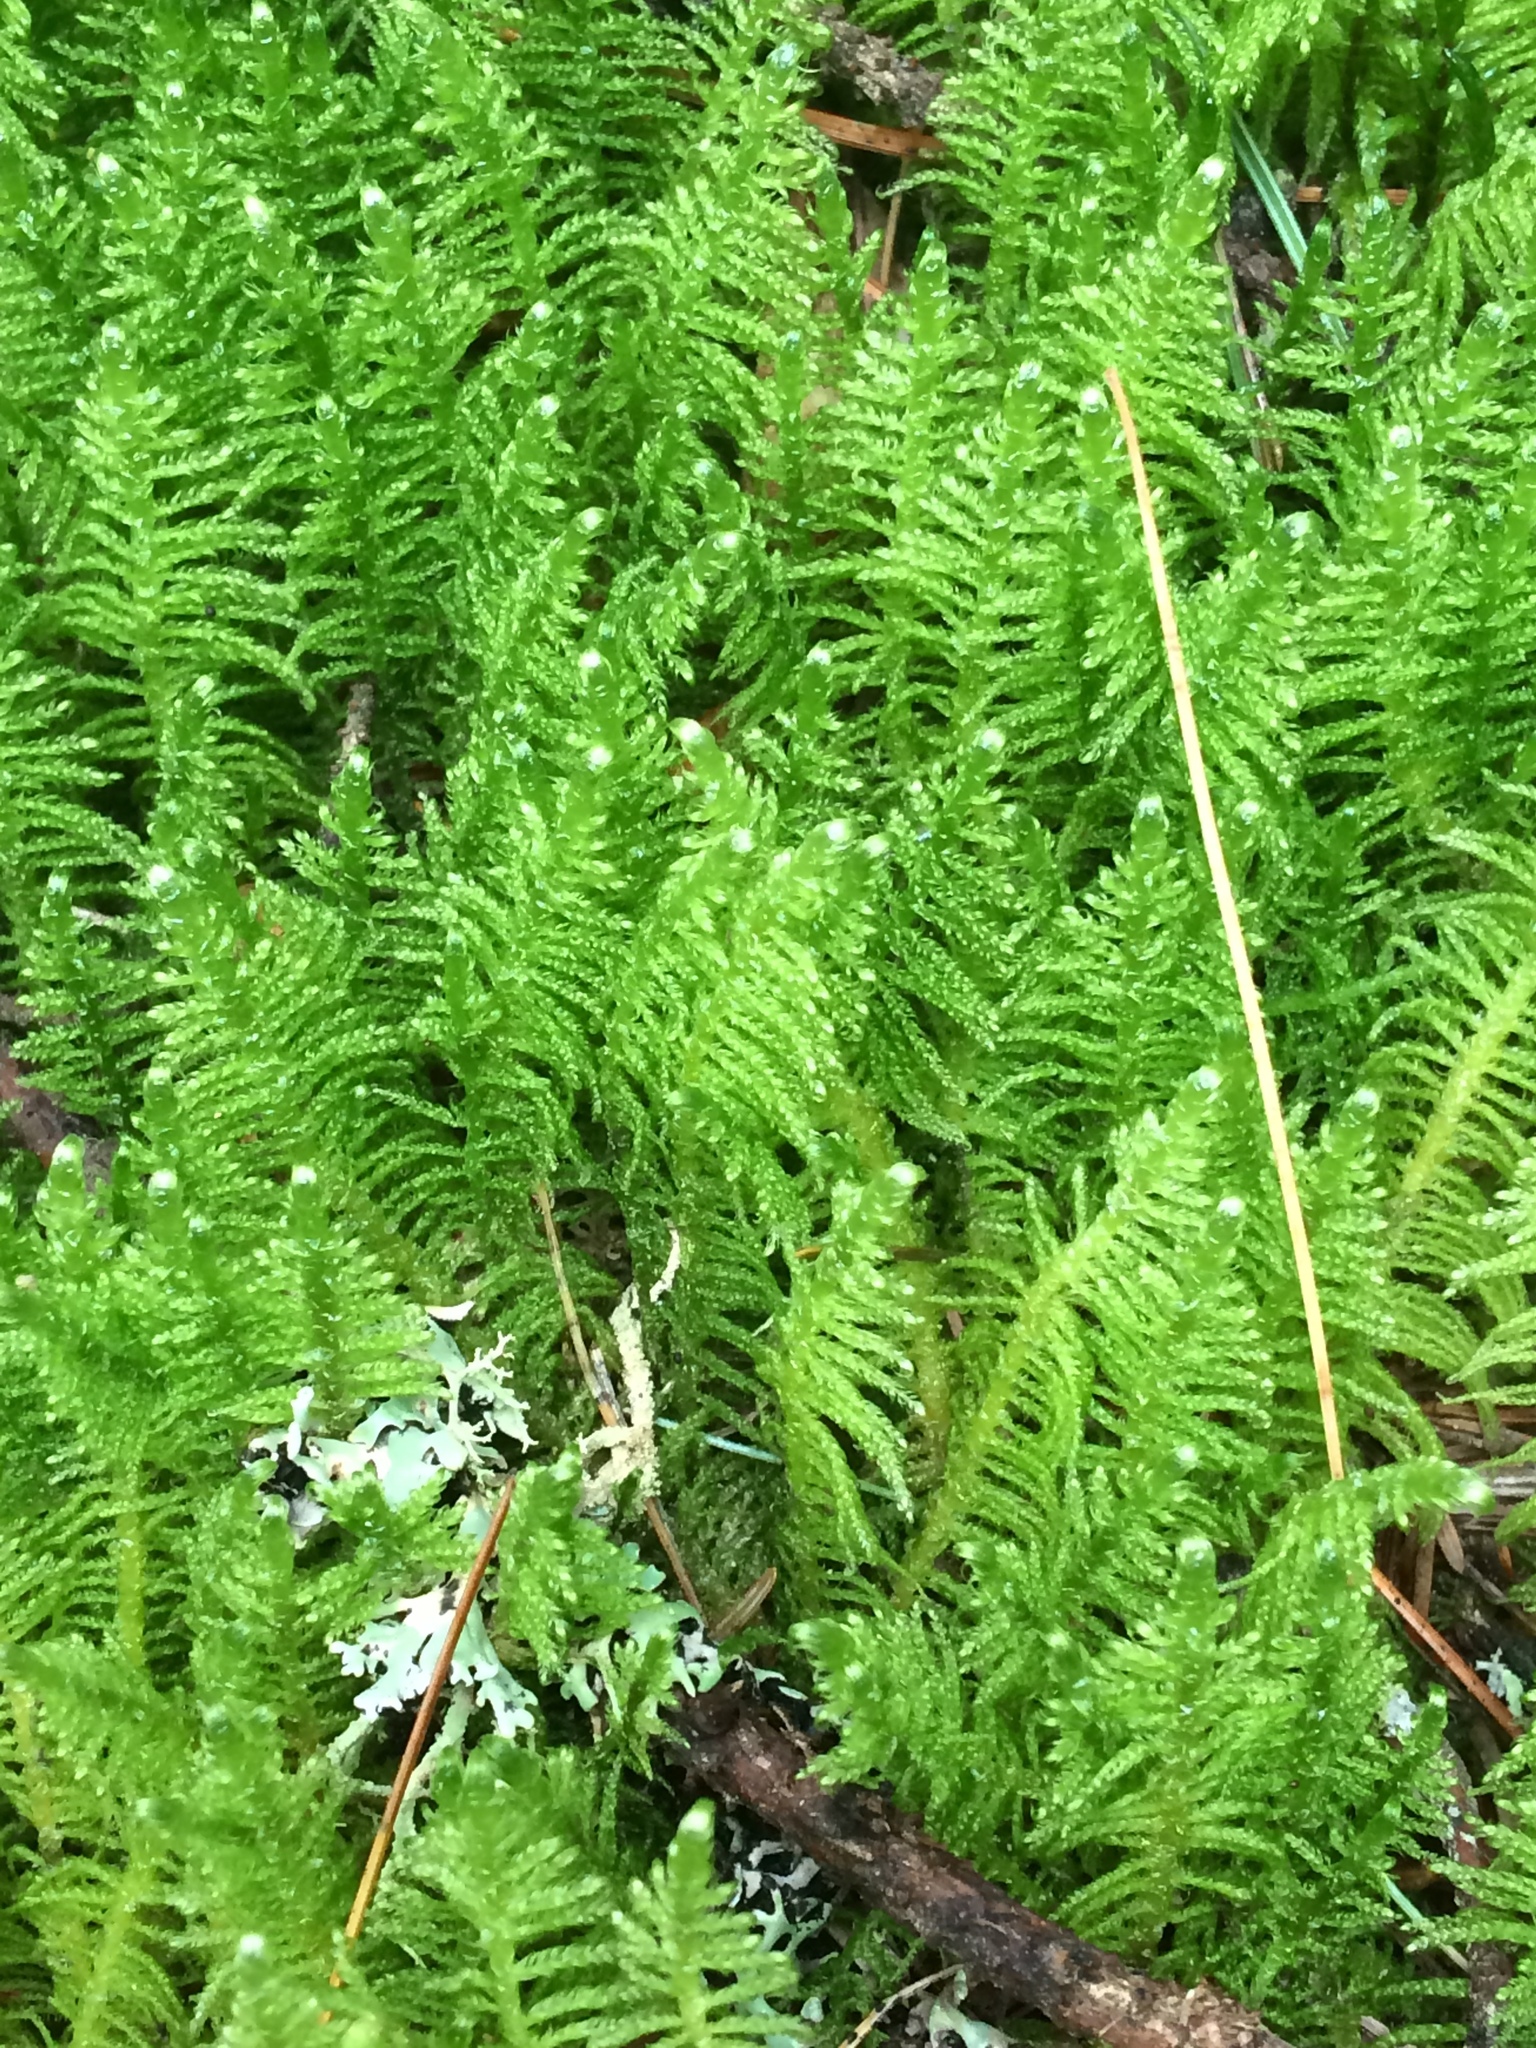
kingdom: Plantae
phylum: Bryophyta
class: Bryopsida
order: Hypnales
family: Pylaisiaceae
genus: Ptilium
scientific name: Ptilium crista-castrensis
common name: Knight's plume moss
